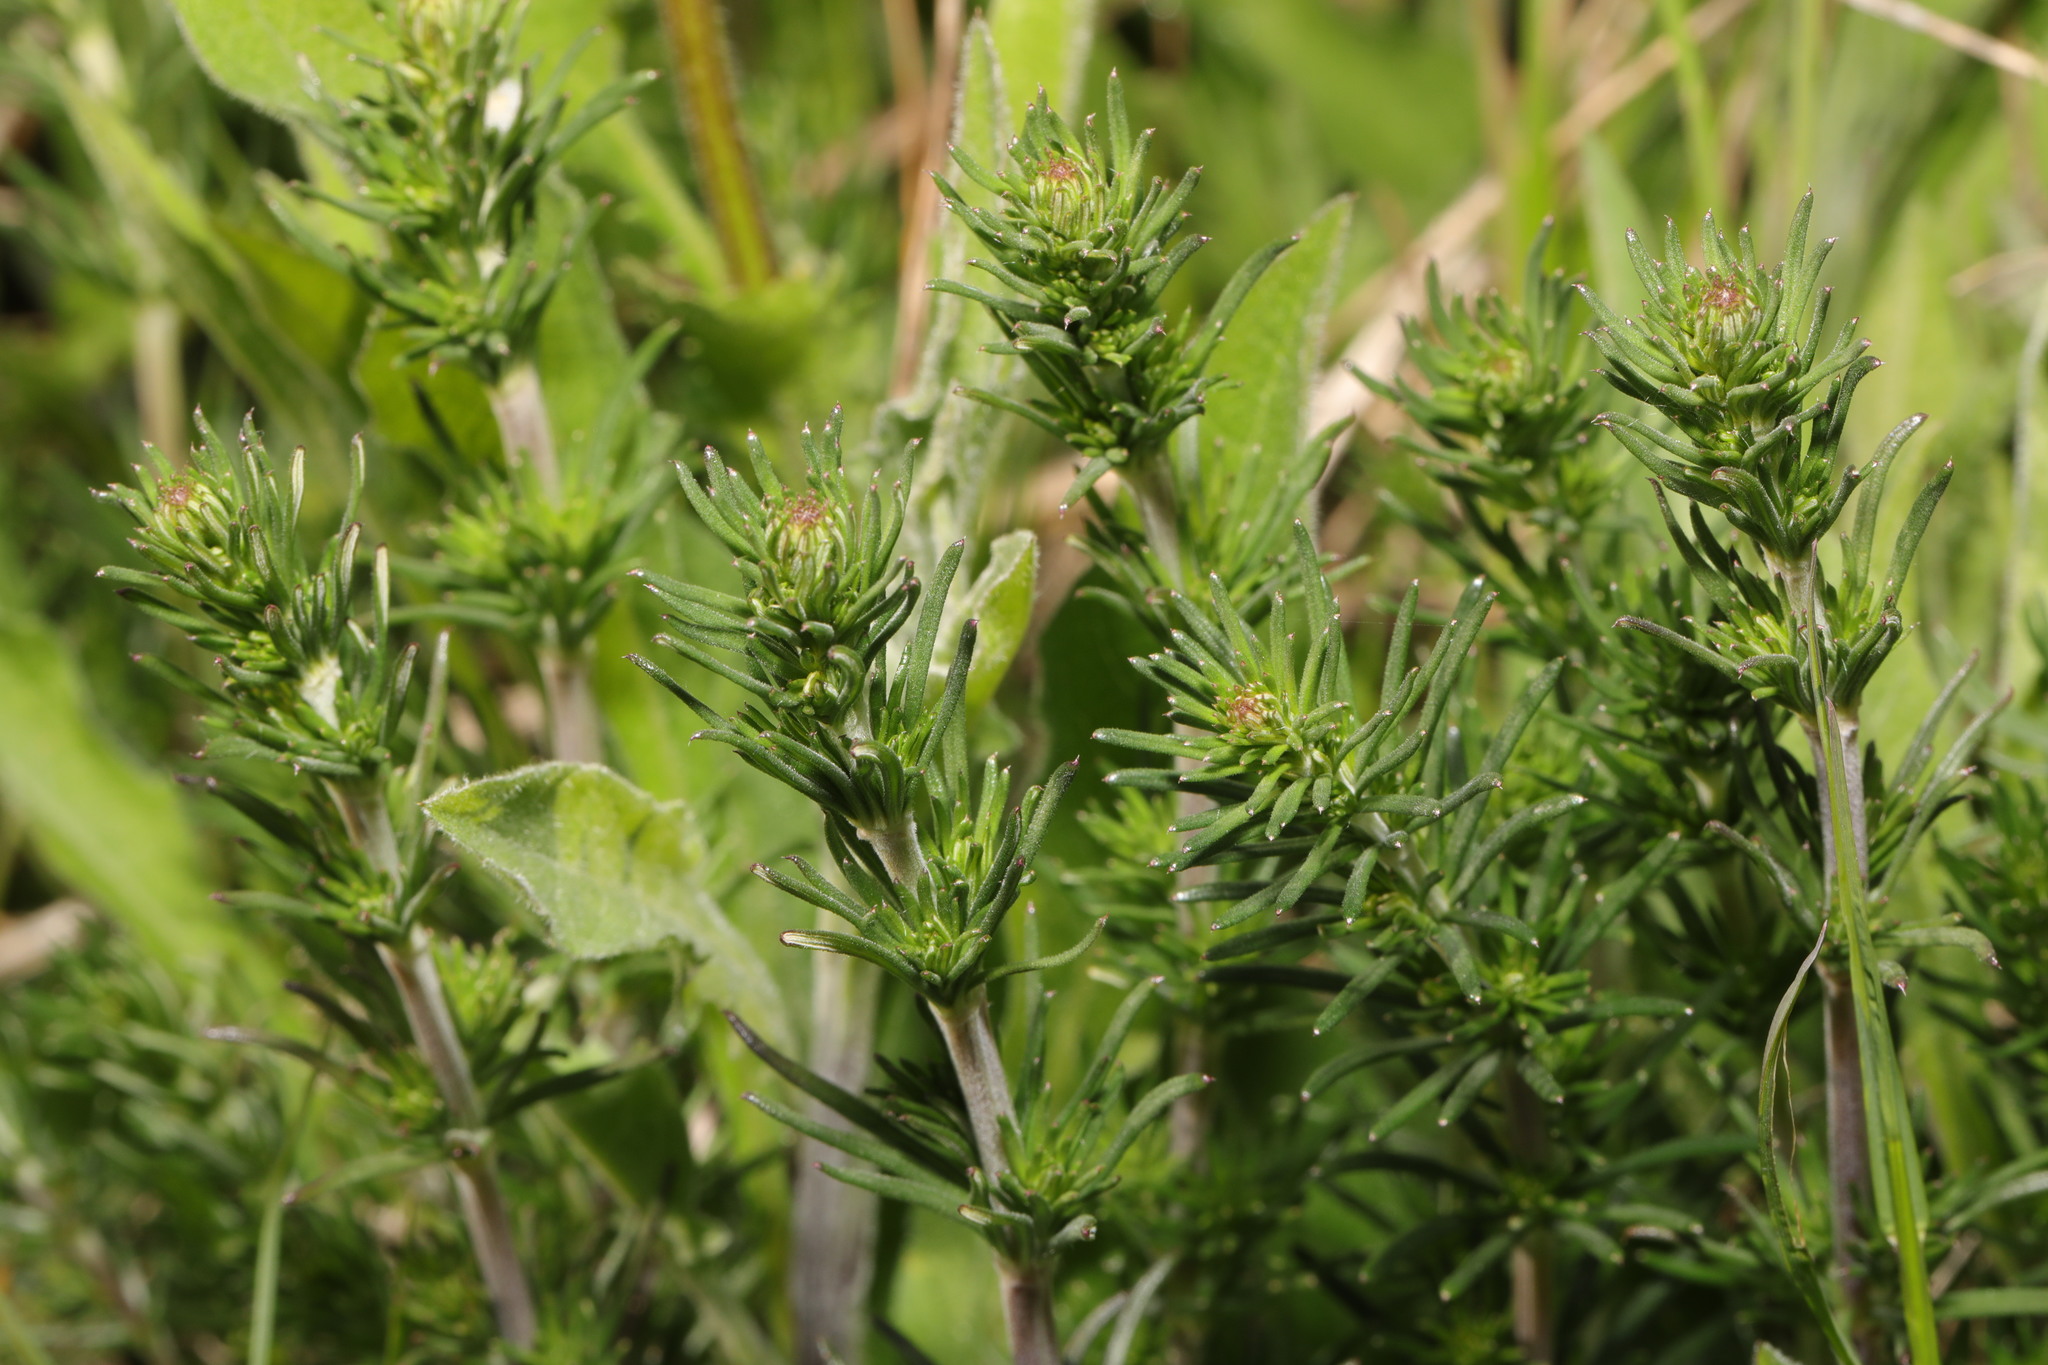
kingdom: Plantae
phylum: Tracheophyta
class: Magnoliopsida
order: Gentianales
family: Rubiaceae
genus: Galium
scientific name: Galium verum
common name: Lady's bedstraw
